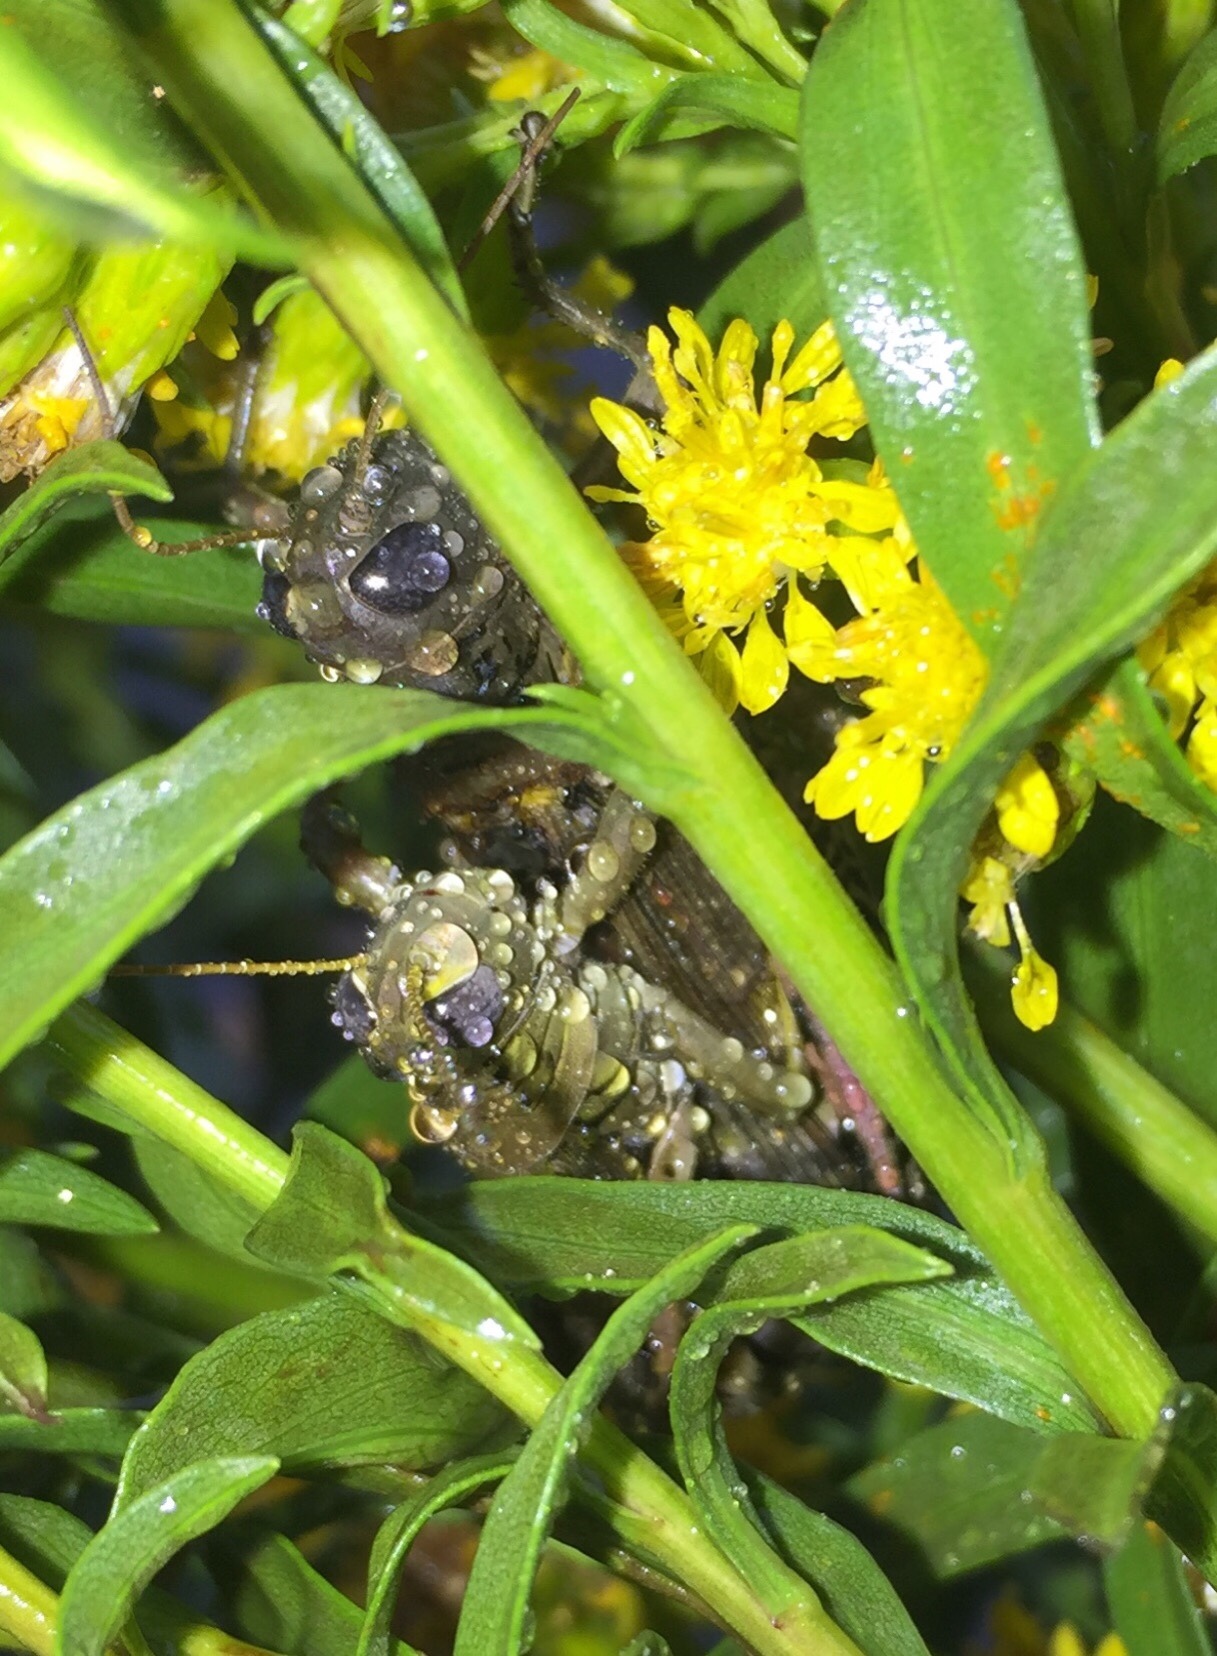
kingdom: Animalia
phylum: Arthropoda
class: Insecta
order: Orthoptera
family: Acrididae
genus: Melanoplus
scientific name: Melanoplus differentialis
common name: Differential grasshopper
